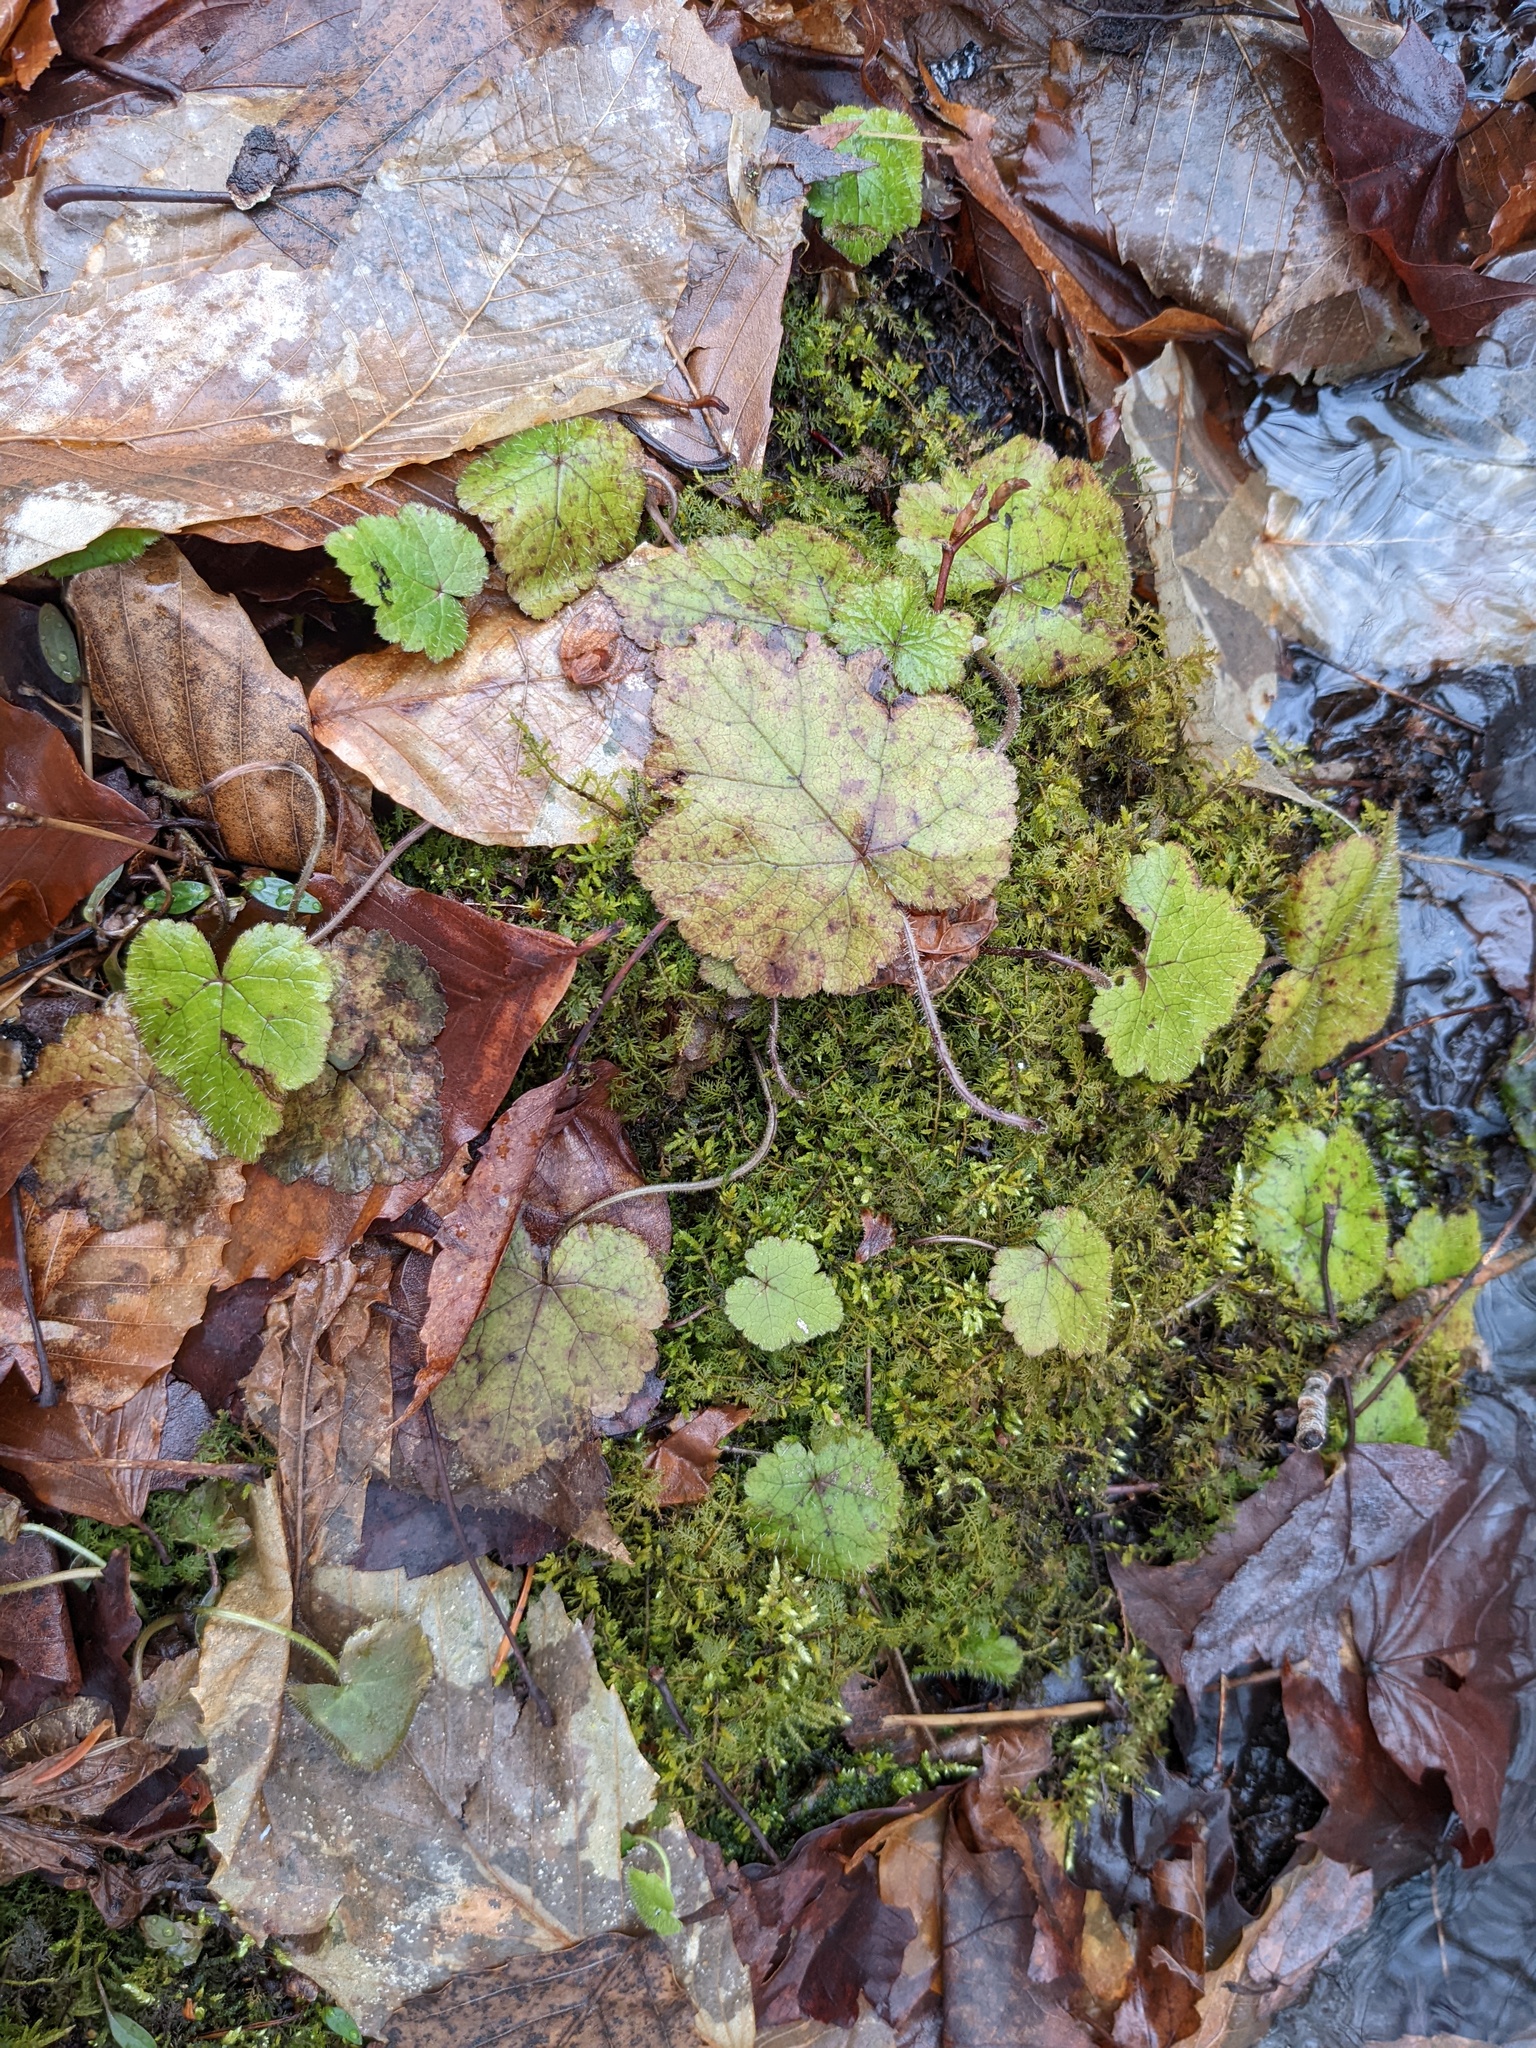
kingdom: Plantae
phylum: Tracheophyta
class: Magnoliopsida
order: Saxifragales
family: Saxifragaceae
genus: Tiarella
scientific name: Tiarella stolonifera
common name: Stoloniferous foamflower
